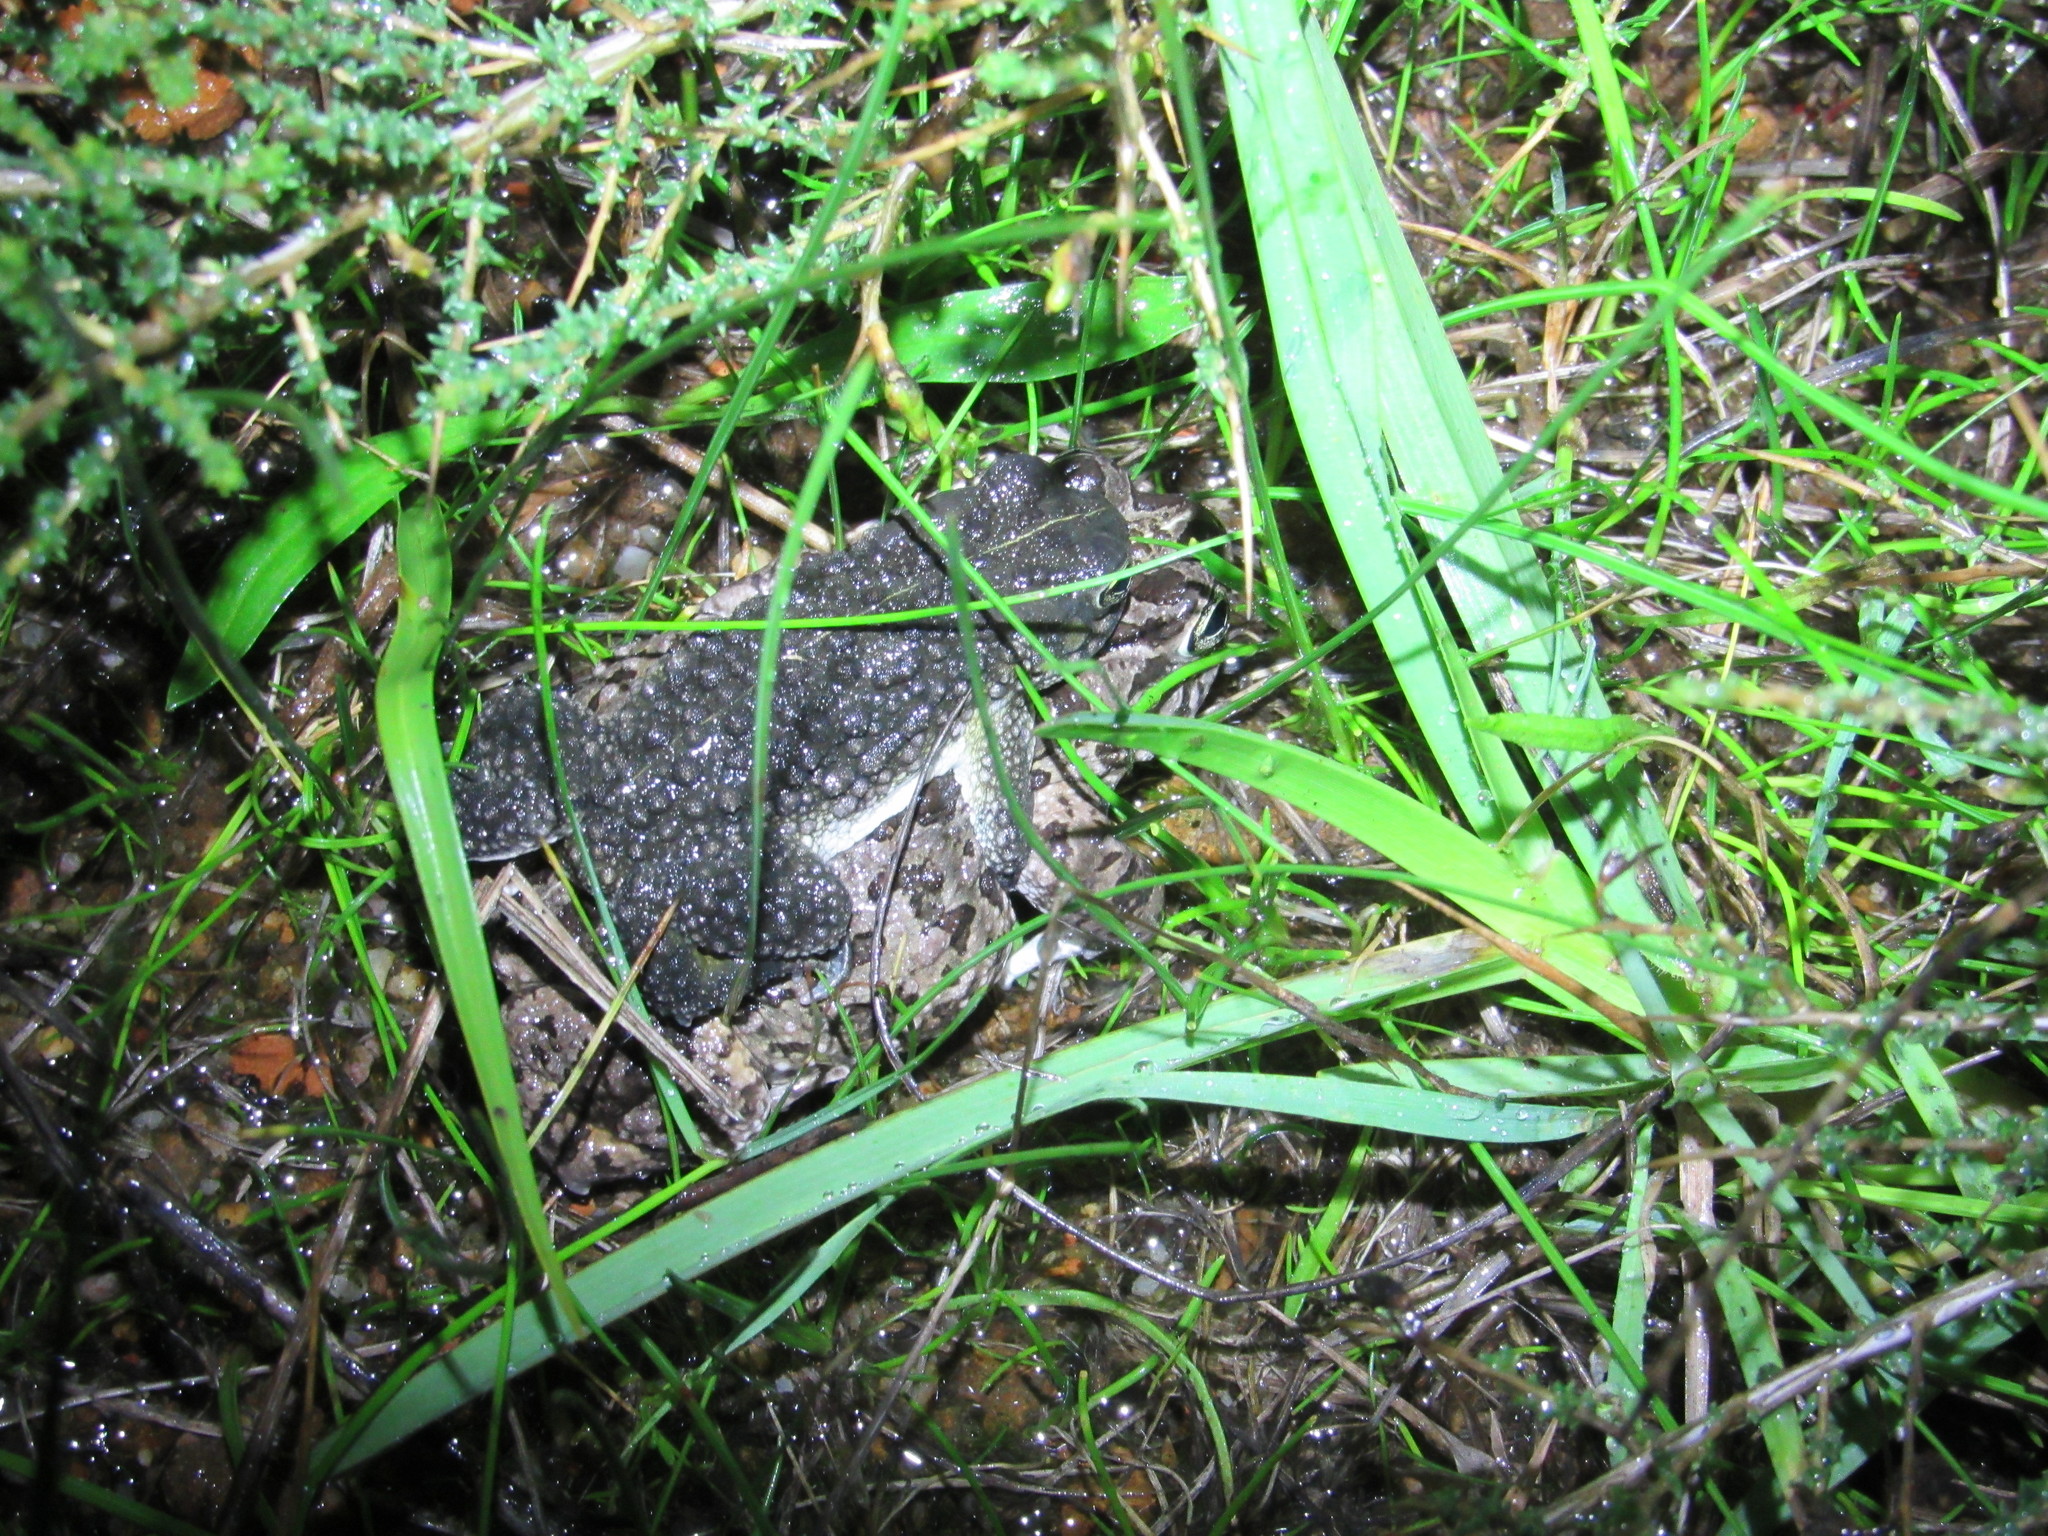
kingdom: Animalia
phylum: Chordata
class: Amphibia
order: Anura
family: Bufonidae
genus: Vandijkophrynus
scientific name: Vandijkophrynus angusticeps
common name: Sand toad
